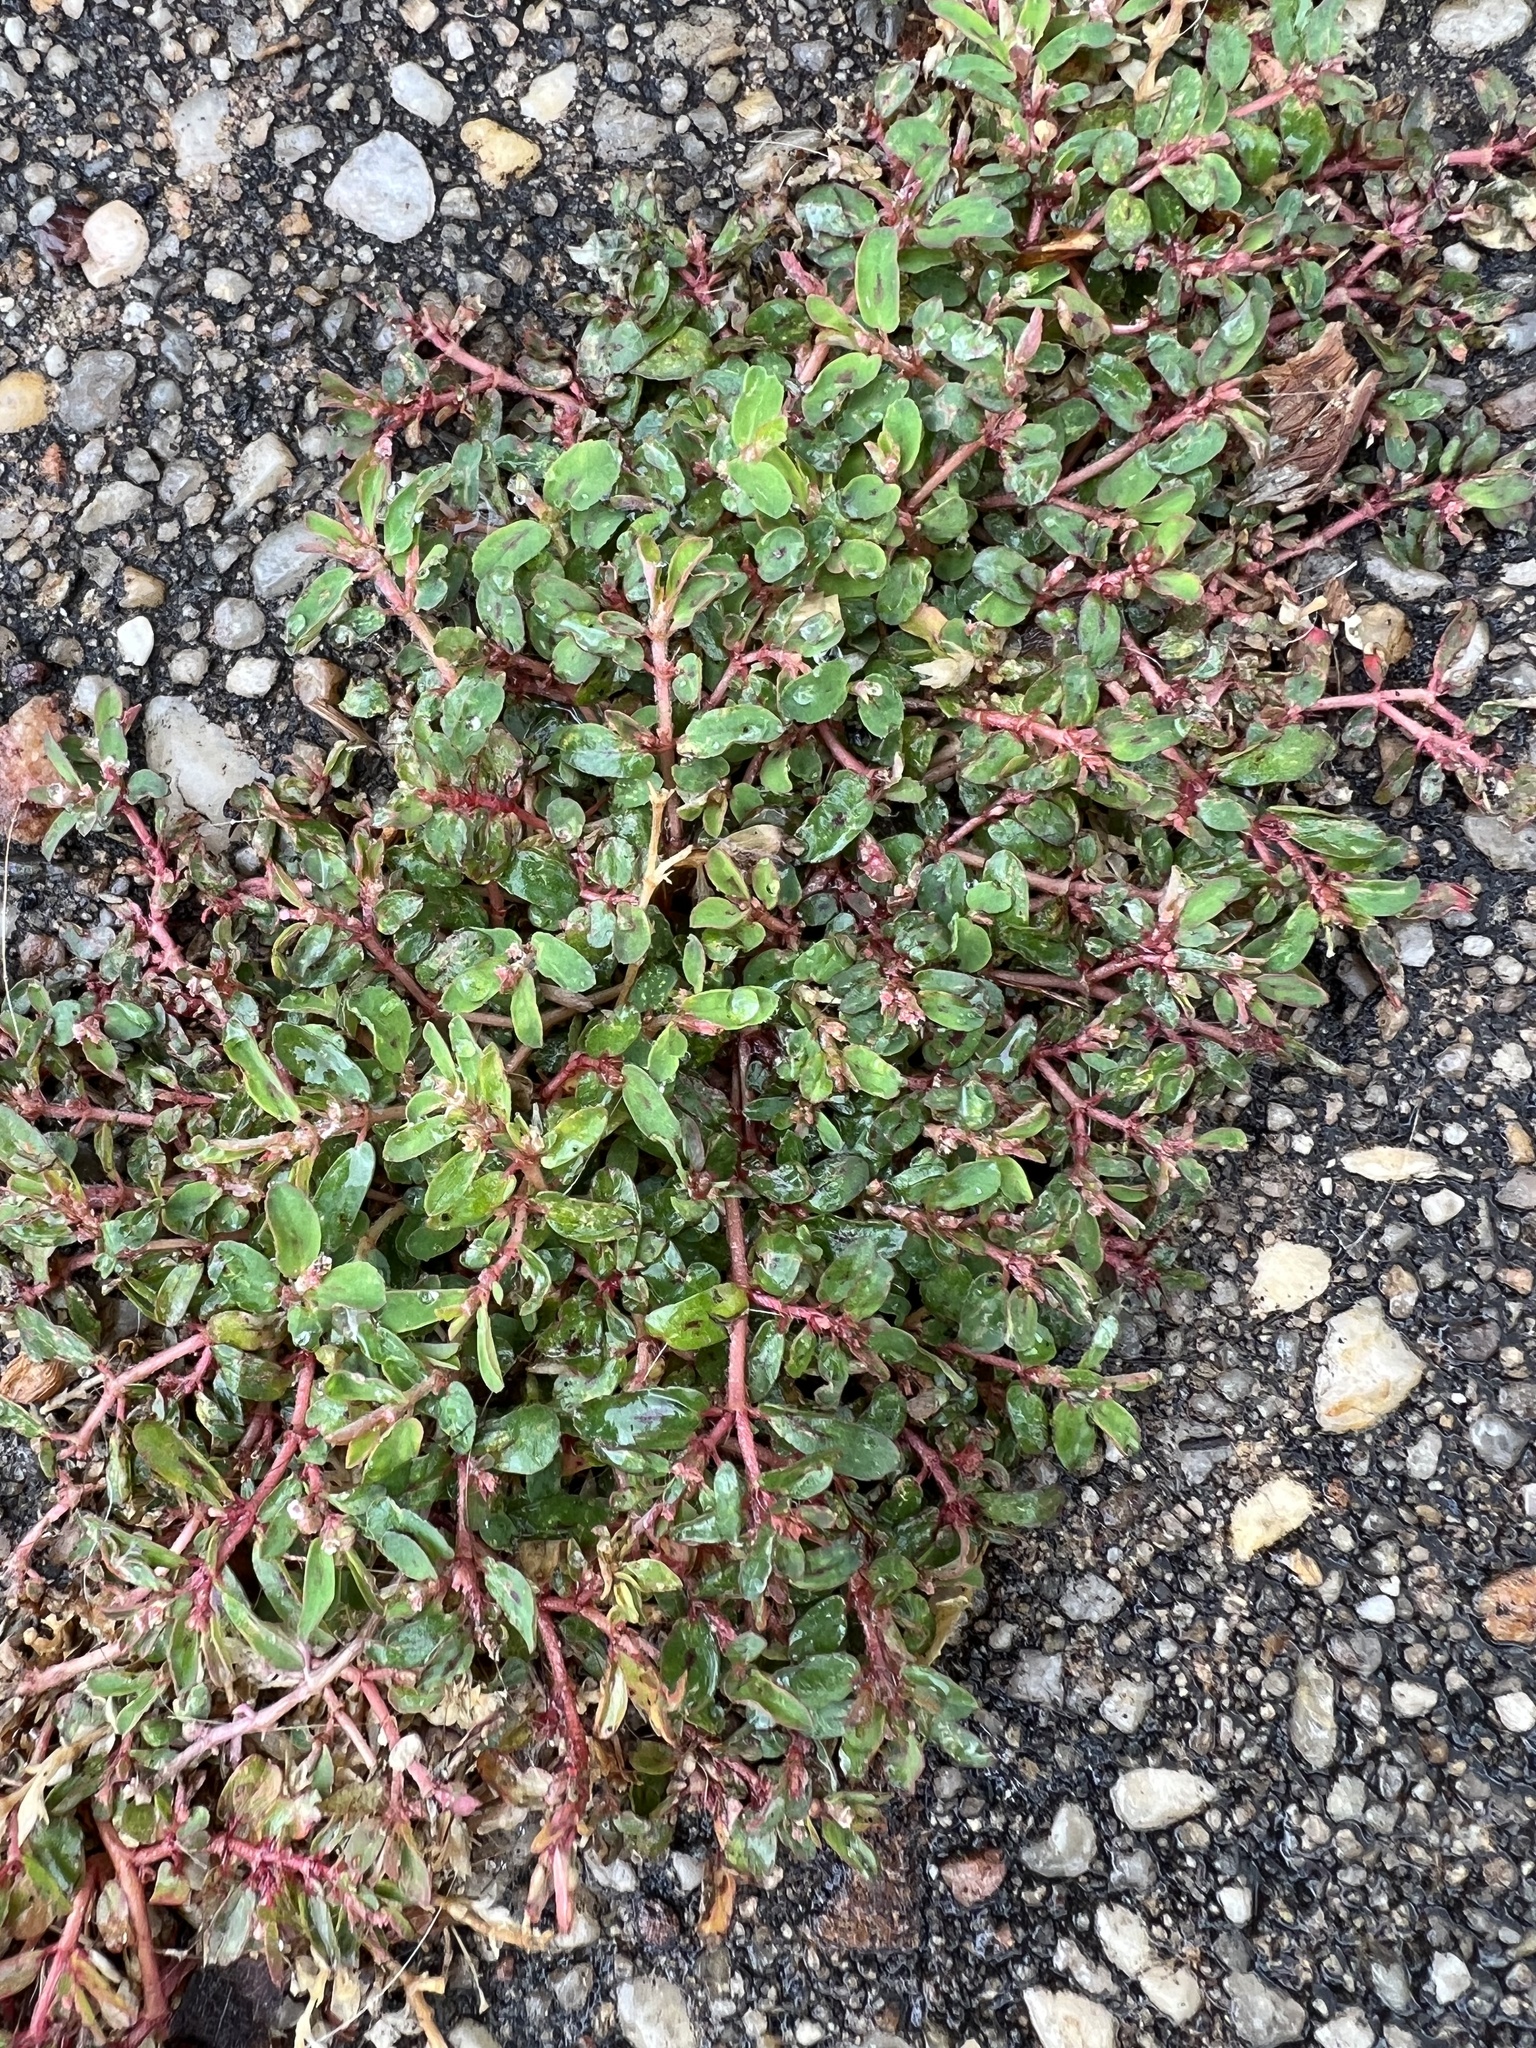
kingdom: Plantae
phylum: Tracheophyta
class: Magnoliopsida
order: Malpighiales
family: Euphorbiaceae
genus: Euphorbia
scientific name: Euphorbia maculata
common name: Spotted spurge
